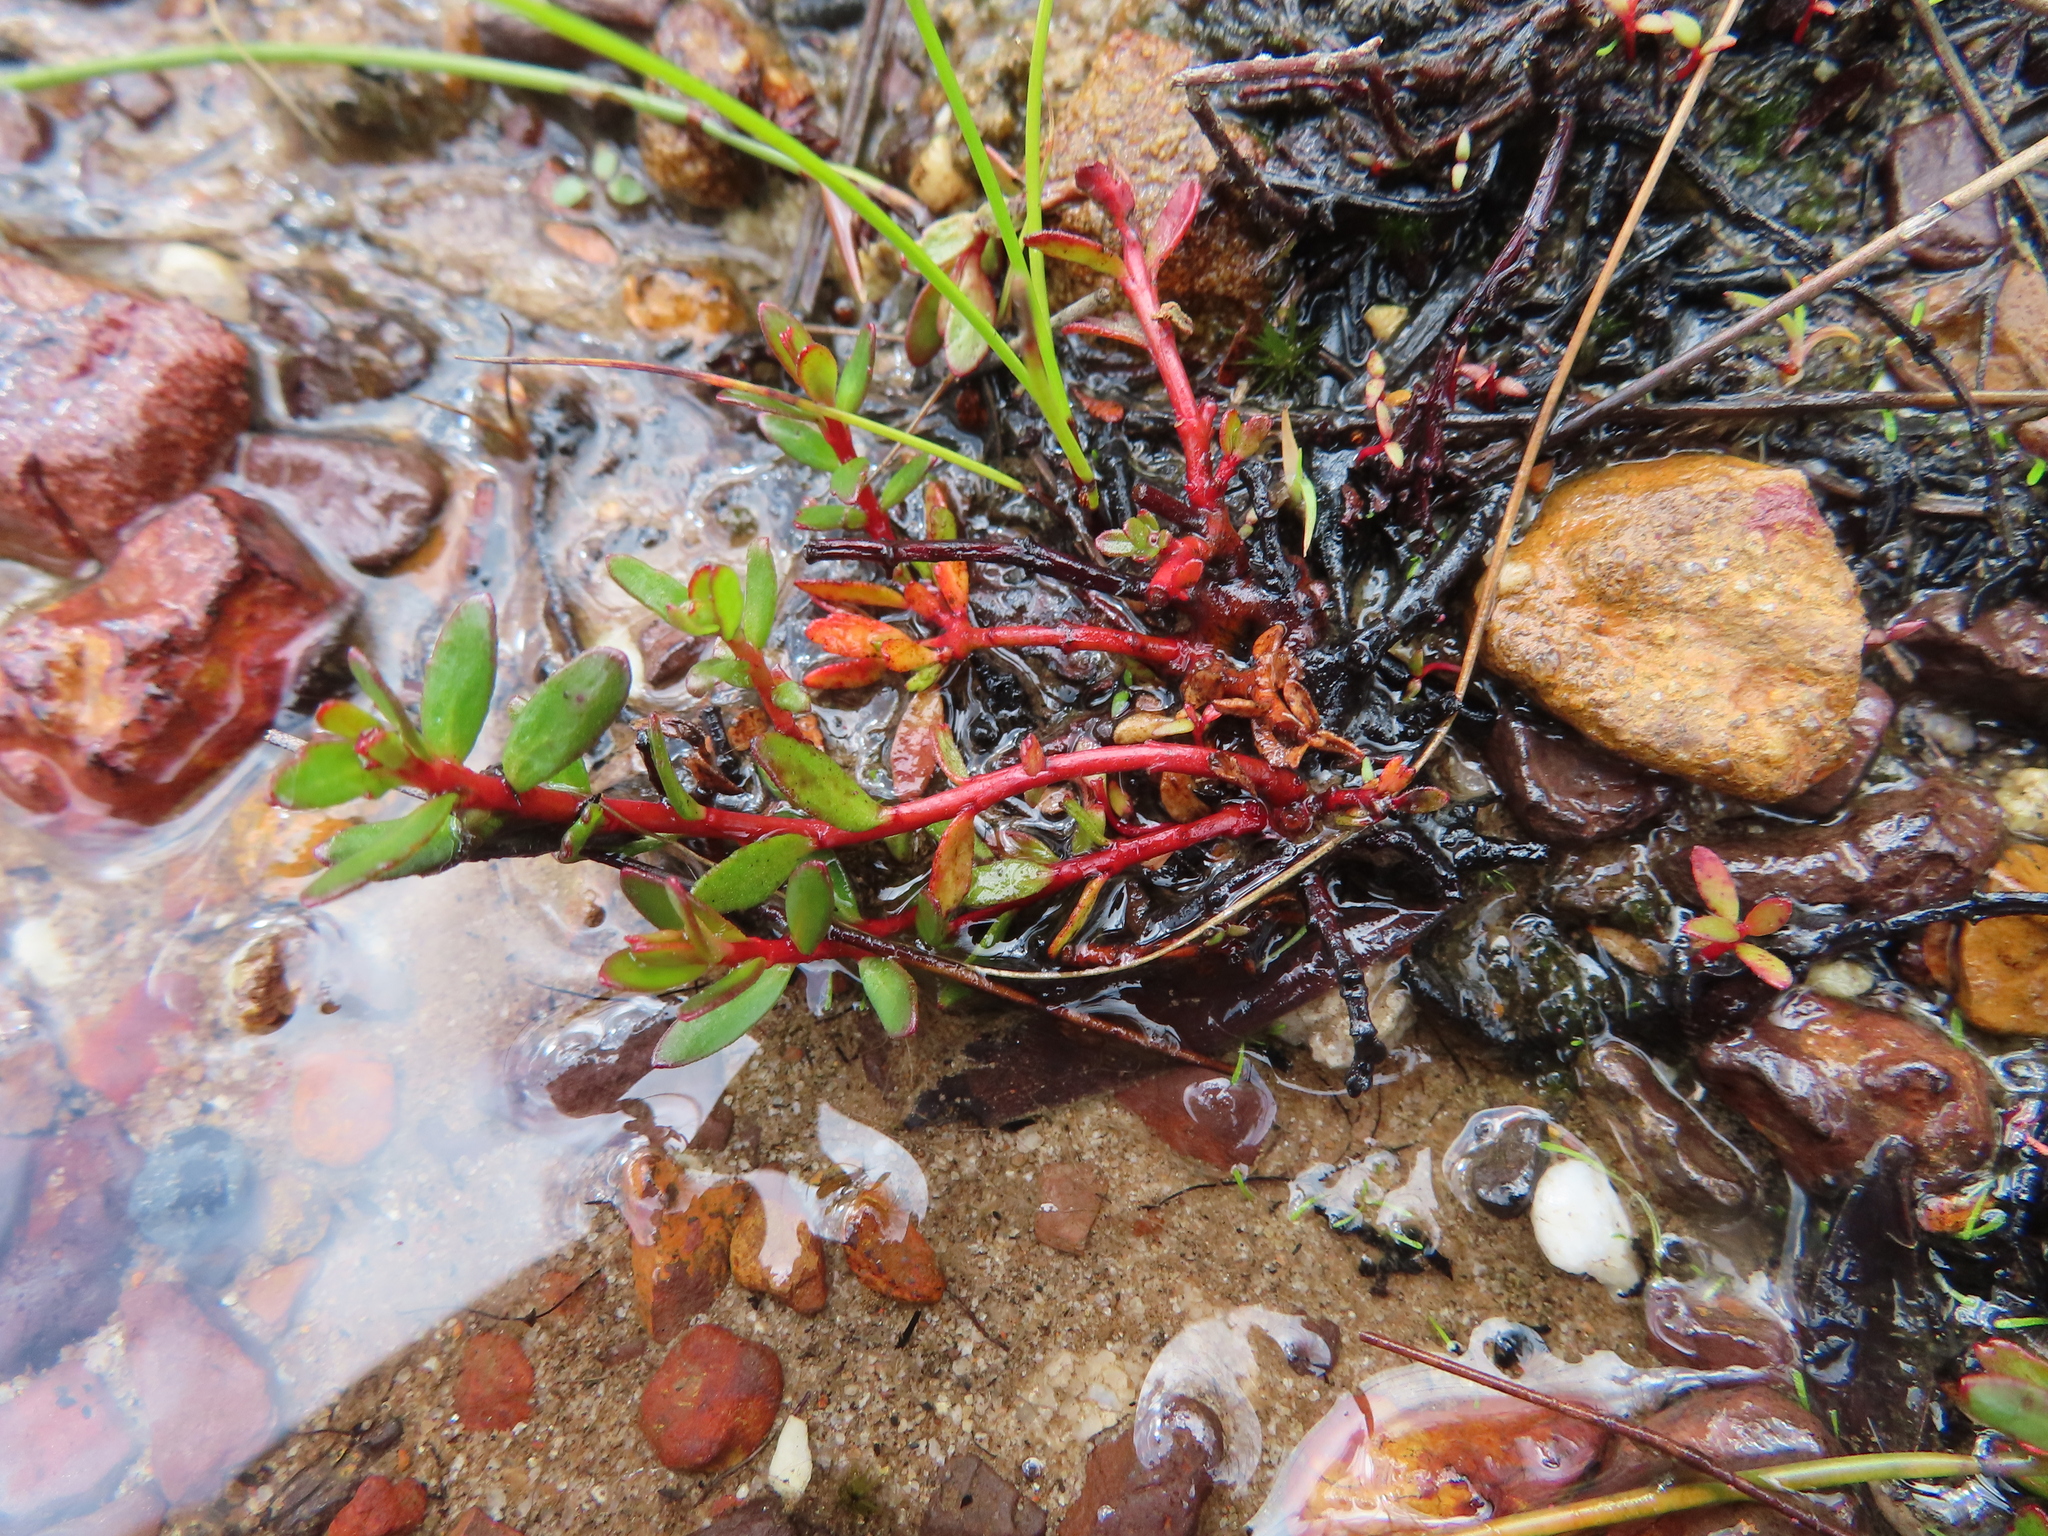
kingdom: Plantae
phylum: Tracheophyta
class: Magnoliopsida
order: Saxifragales
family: Haloragaceae
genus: Laurembergia
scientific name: Laurembergia repens
